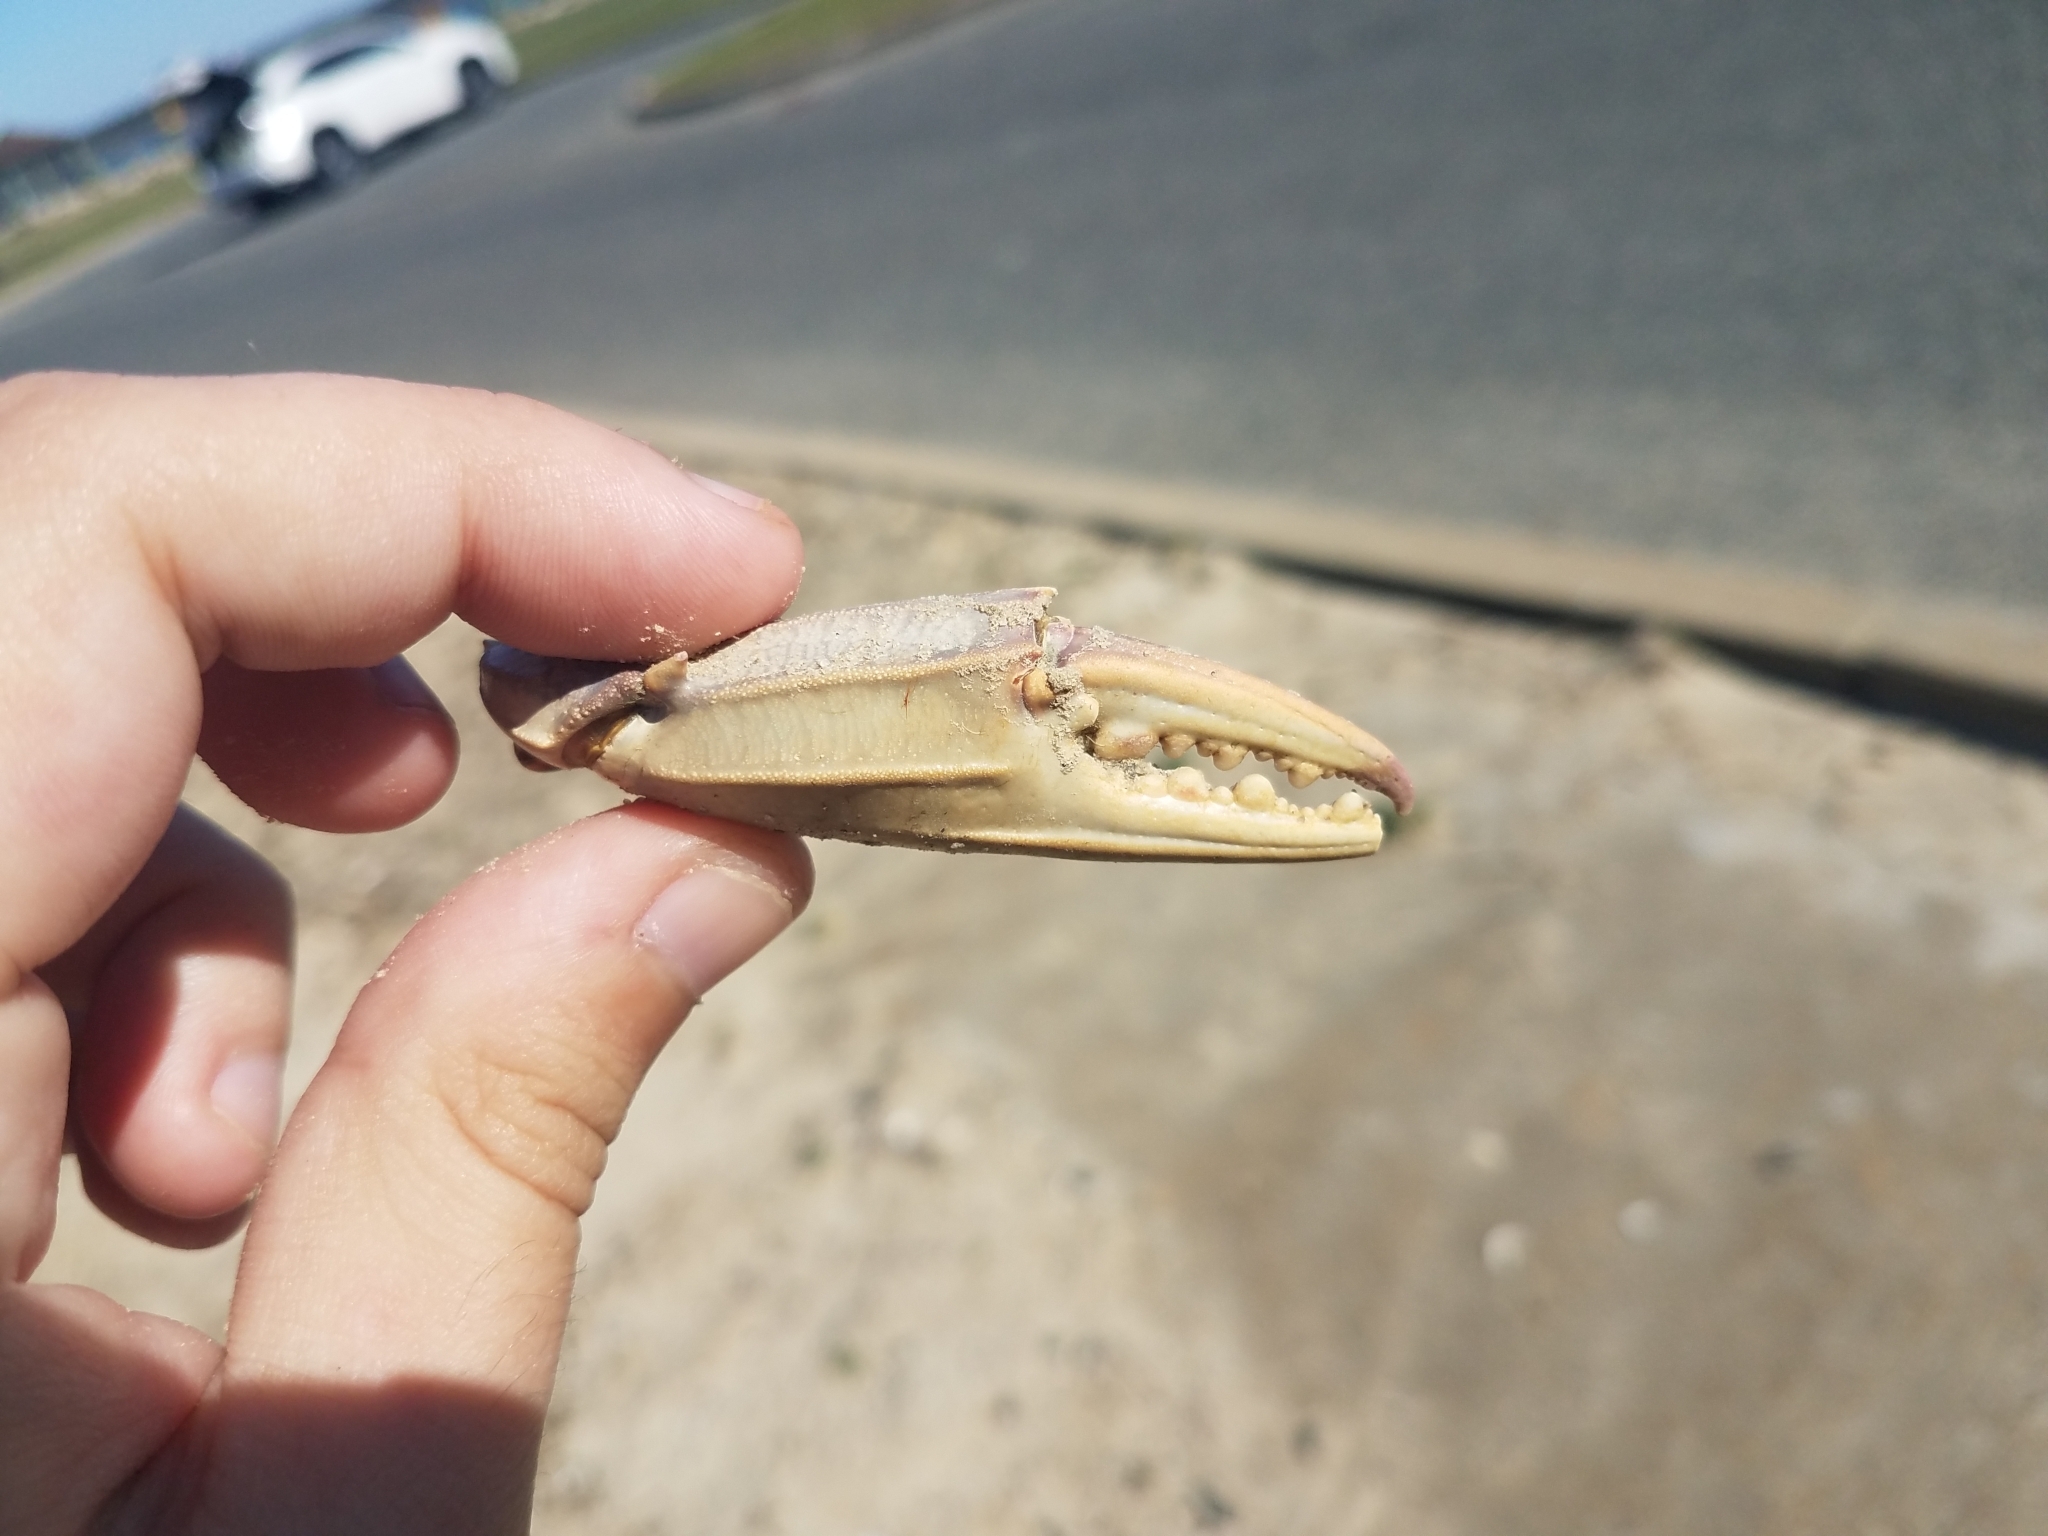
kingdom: Animalia
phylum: Arthropoda
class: Malacostraca
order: Decapoda
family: Portunidae
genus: Callinectes
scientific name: Callinectes sapidus
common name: Blue crab
